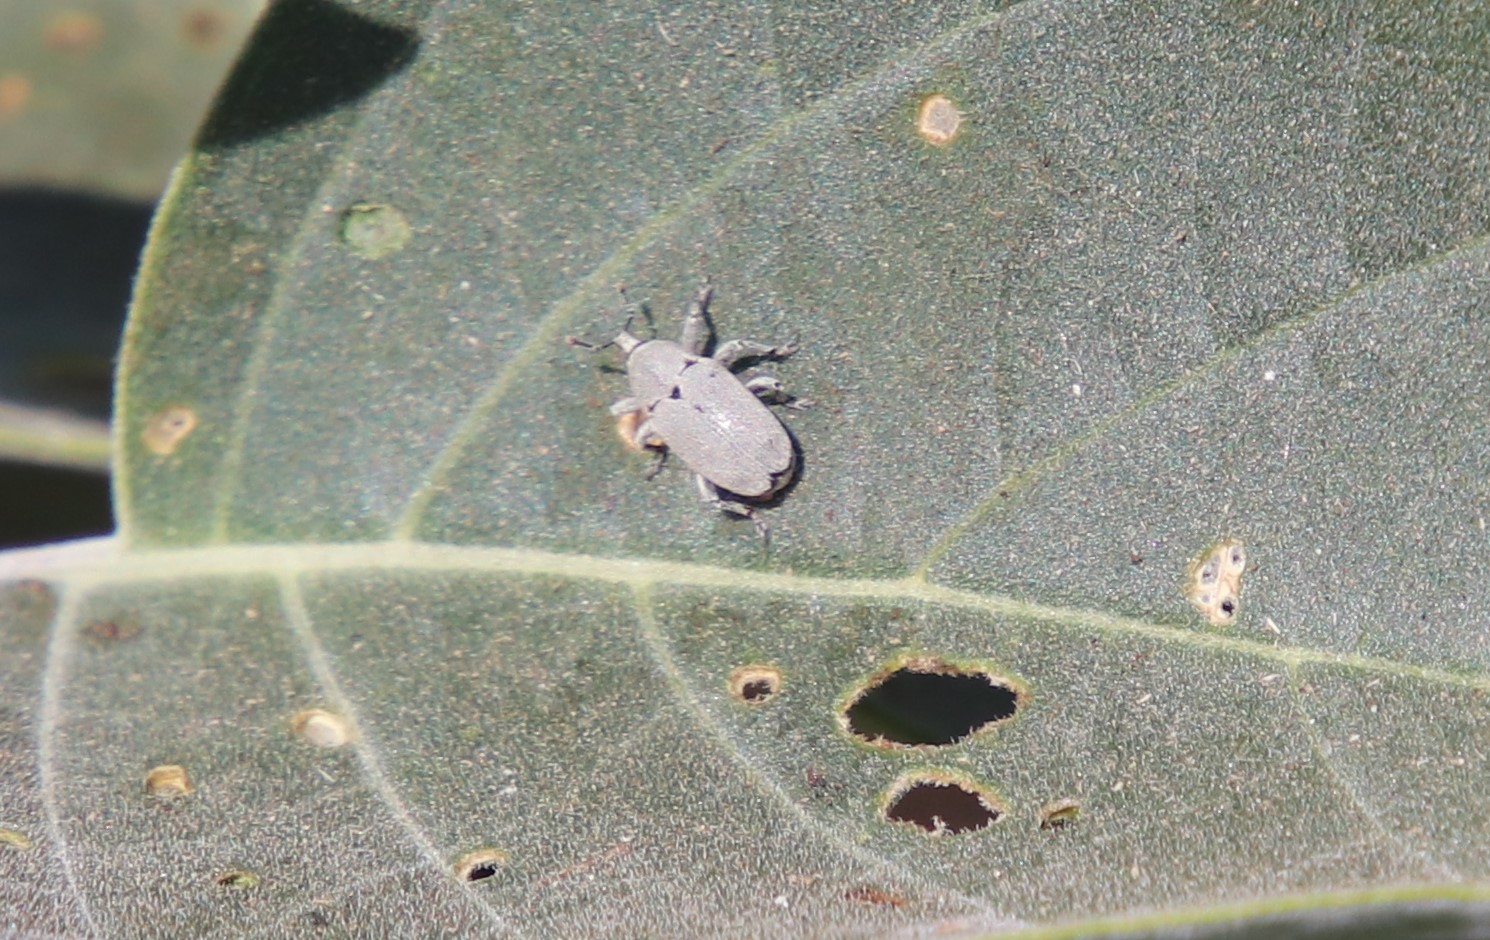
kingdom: Animalia
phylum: Arthropoda
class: Insecta
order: Coleoptera
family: Curculionidae
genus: Trichobaris
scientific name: Trichobaris compacta
